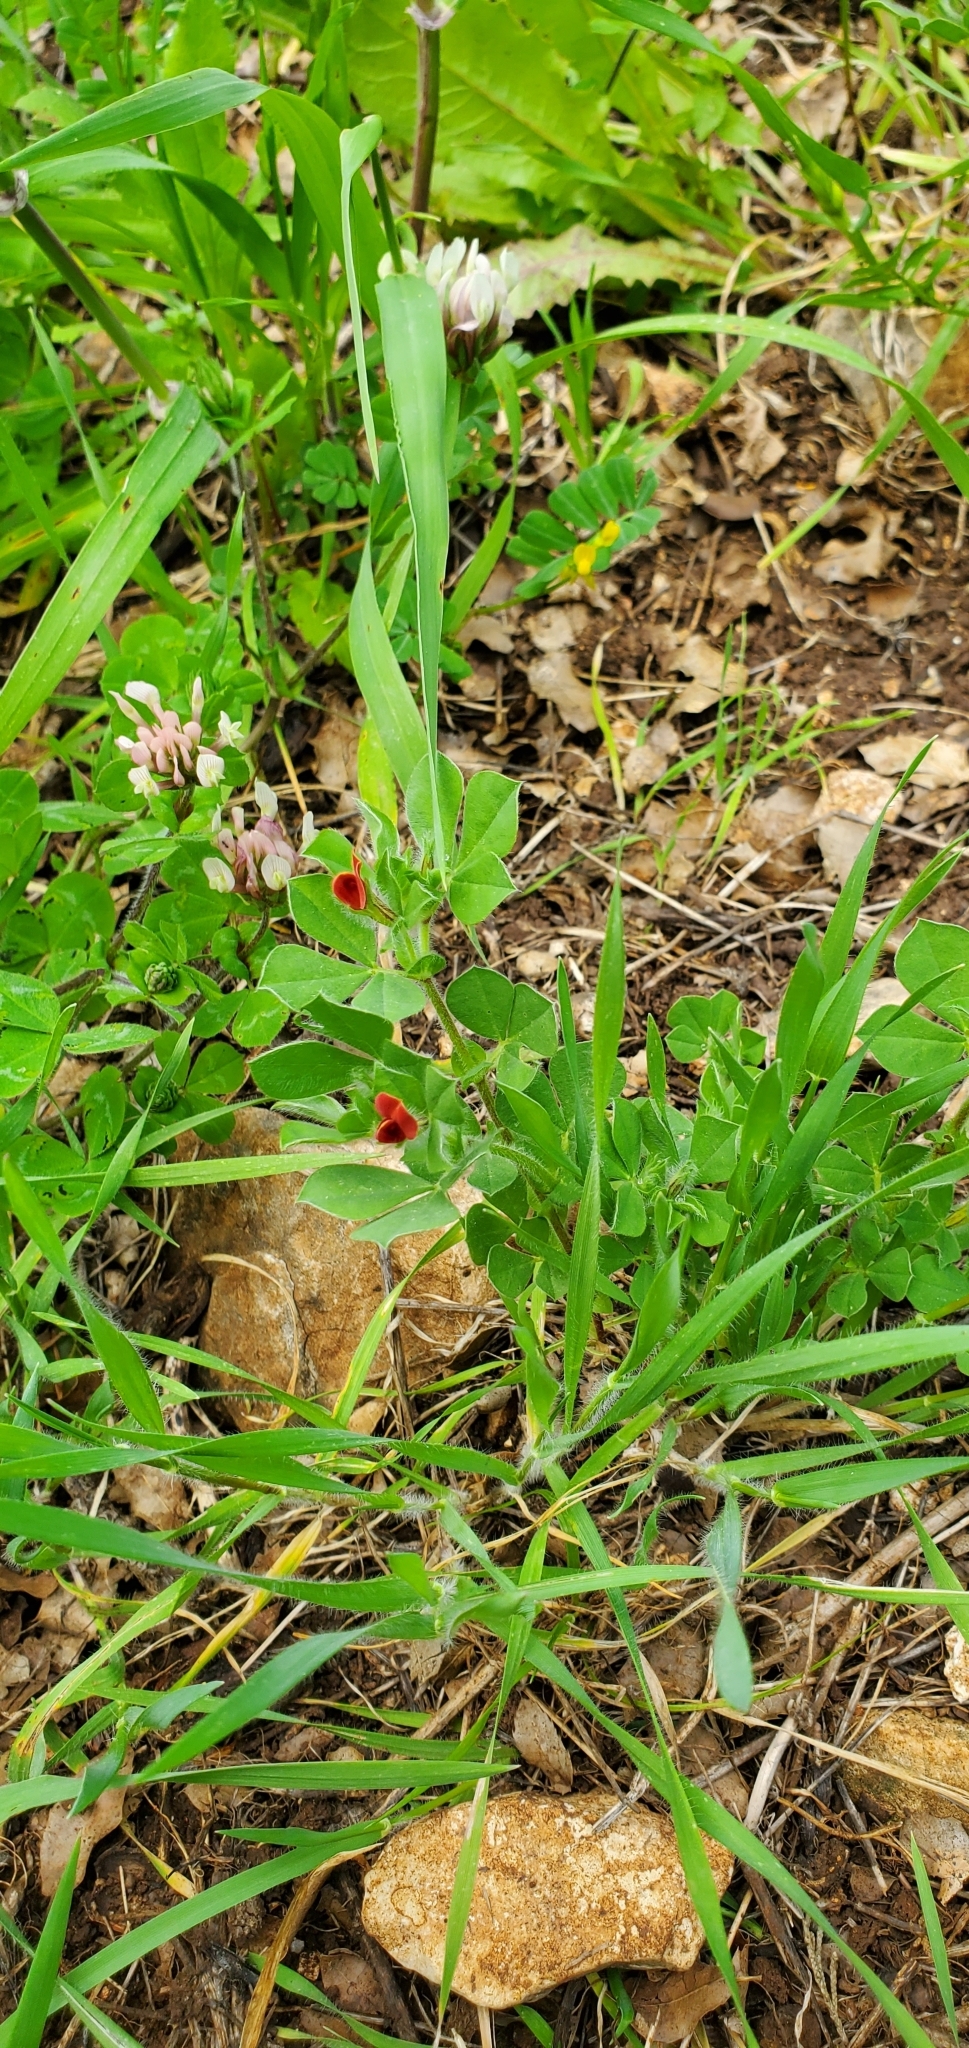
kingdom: Plantae
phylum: Tracheophyta
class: Magnoliopsida
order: Fabales
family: Fabaceae
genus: Lotus
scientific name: Lotus tetragonolobus
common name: Asparagus-pea
